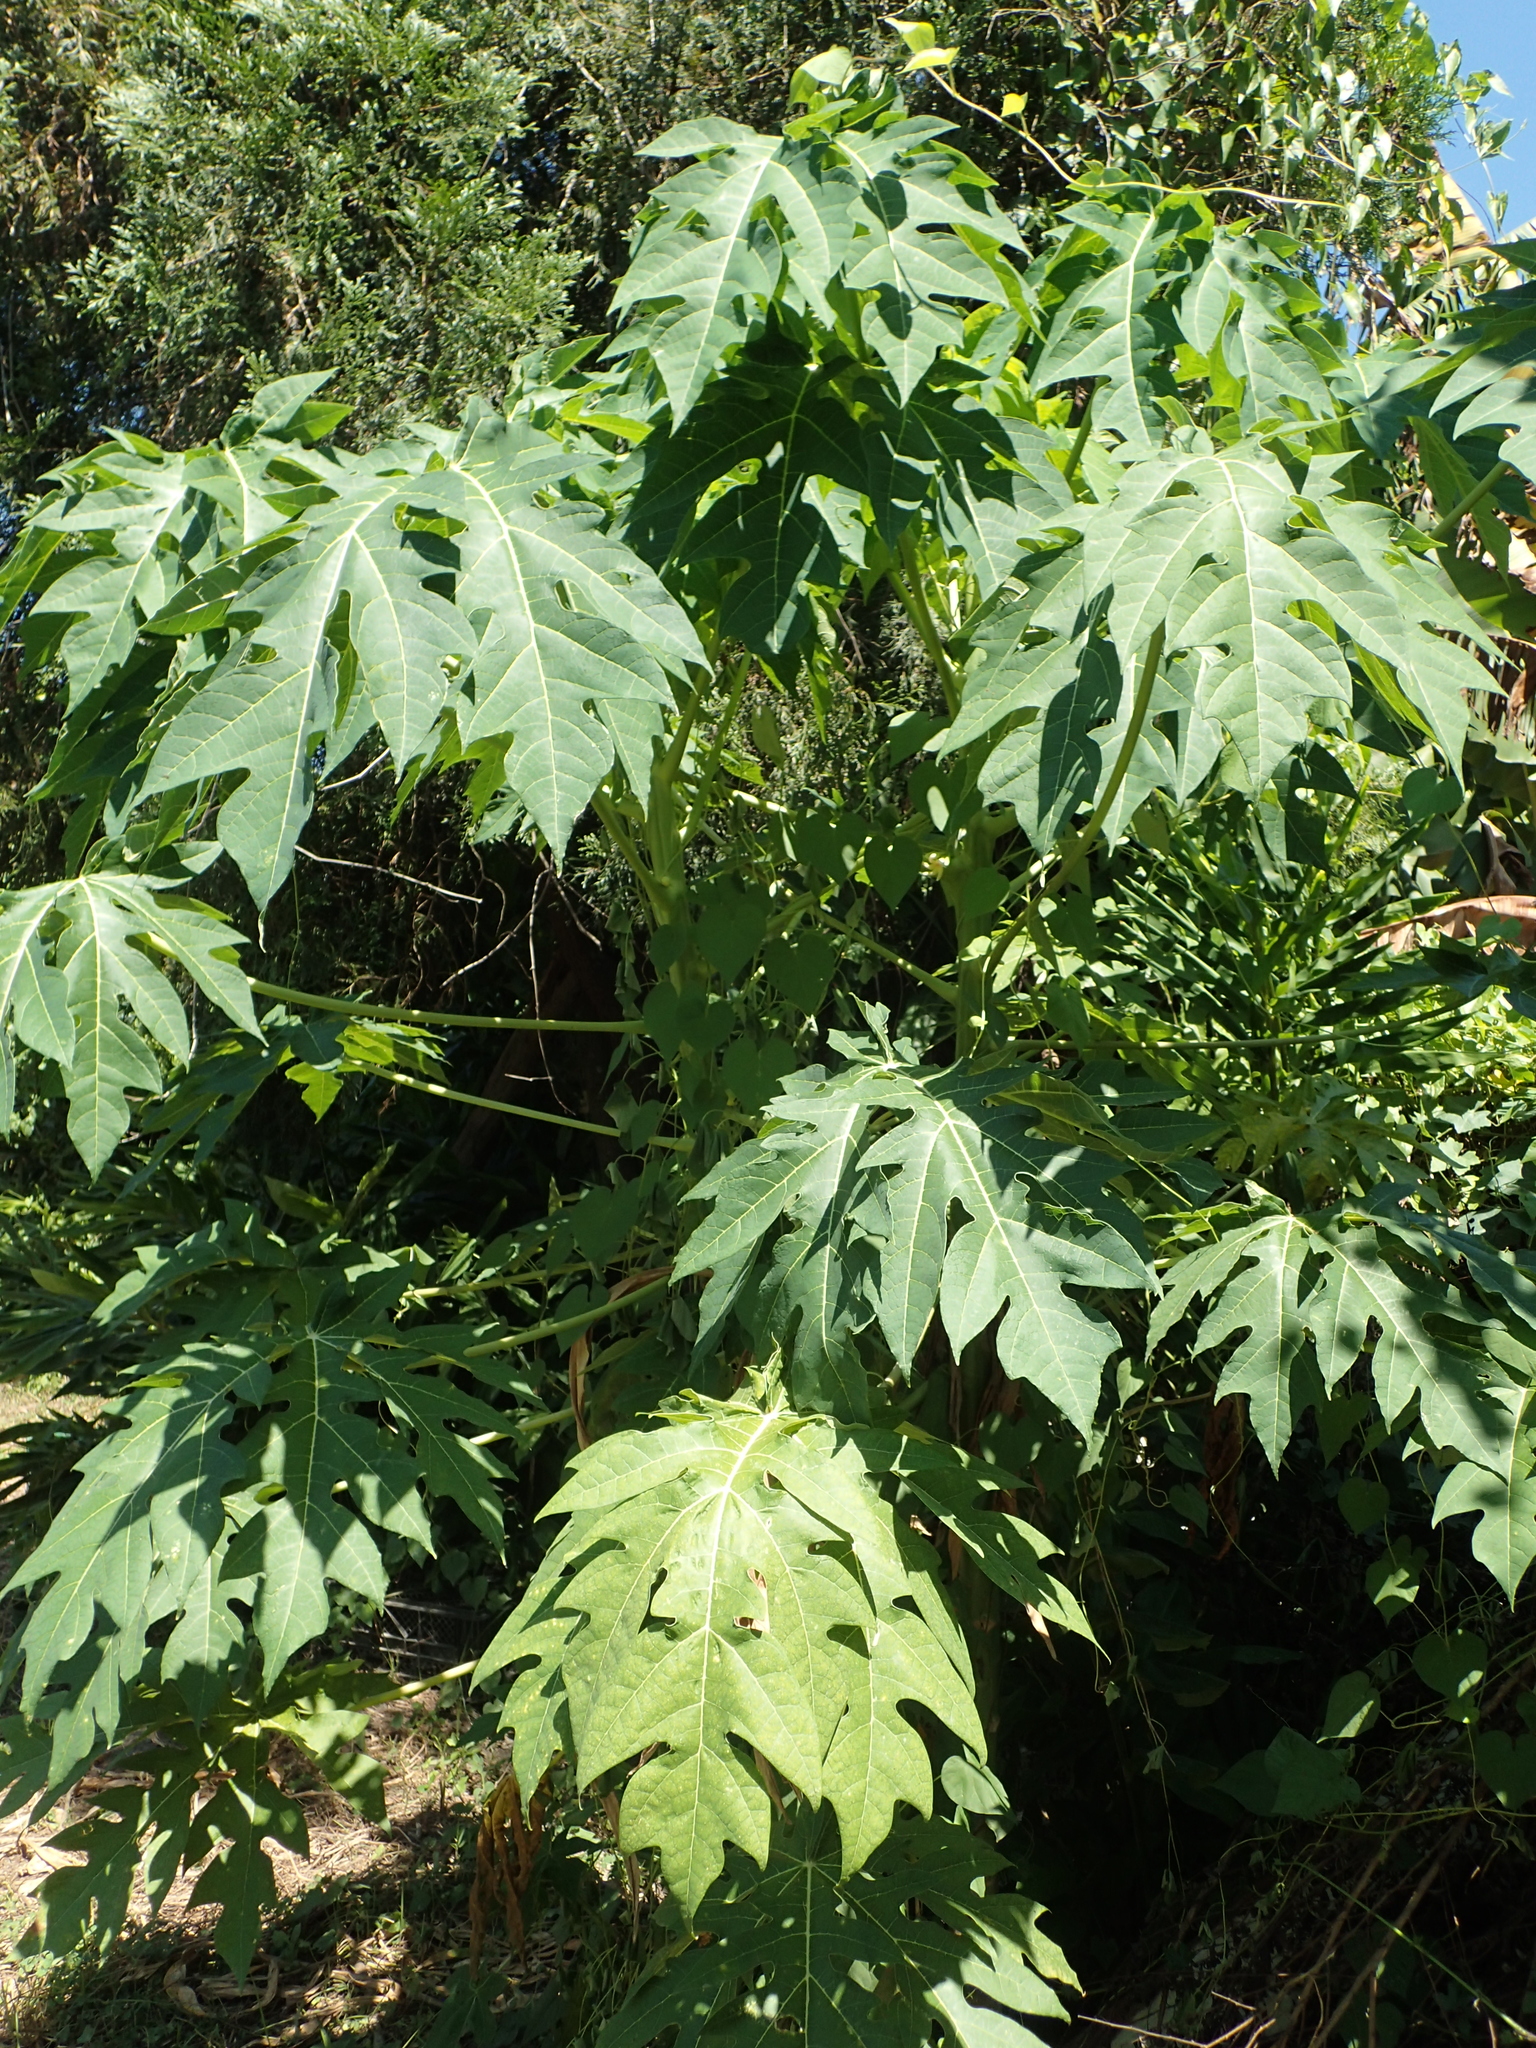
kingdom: Plantae
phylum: Tracheophyta
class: Magnoliopsida
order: Brassicales
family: Caricaceae
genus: Carica
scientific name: Carica papaya
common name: Papaya
